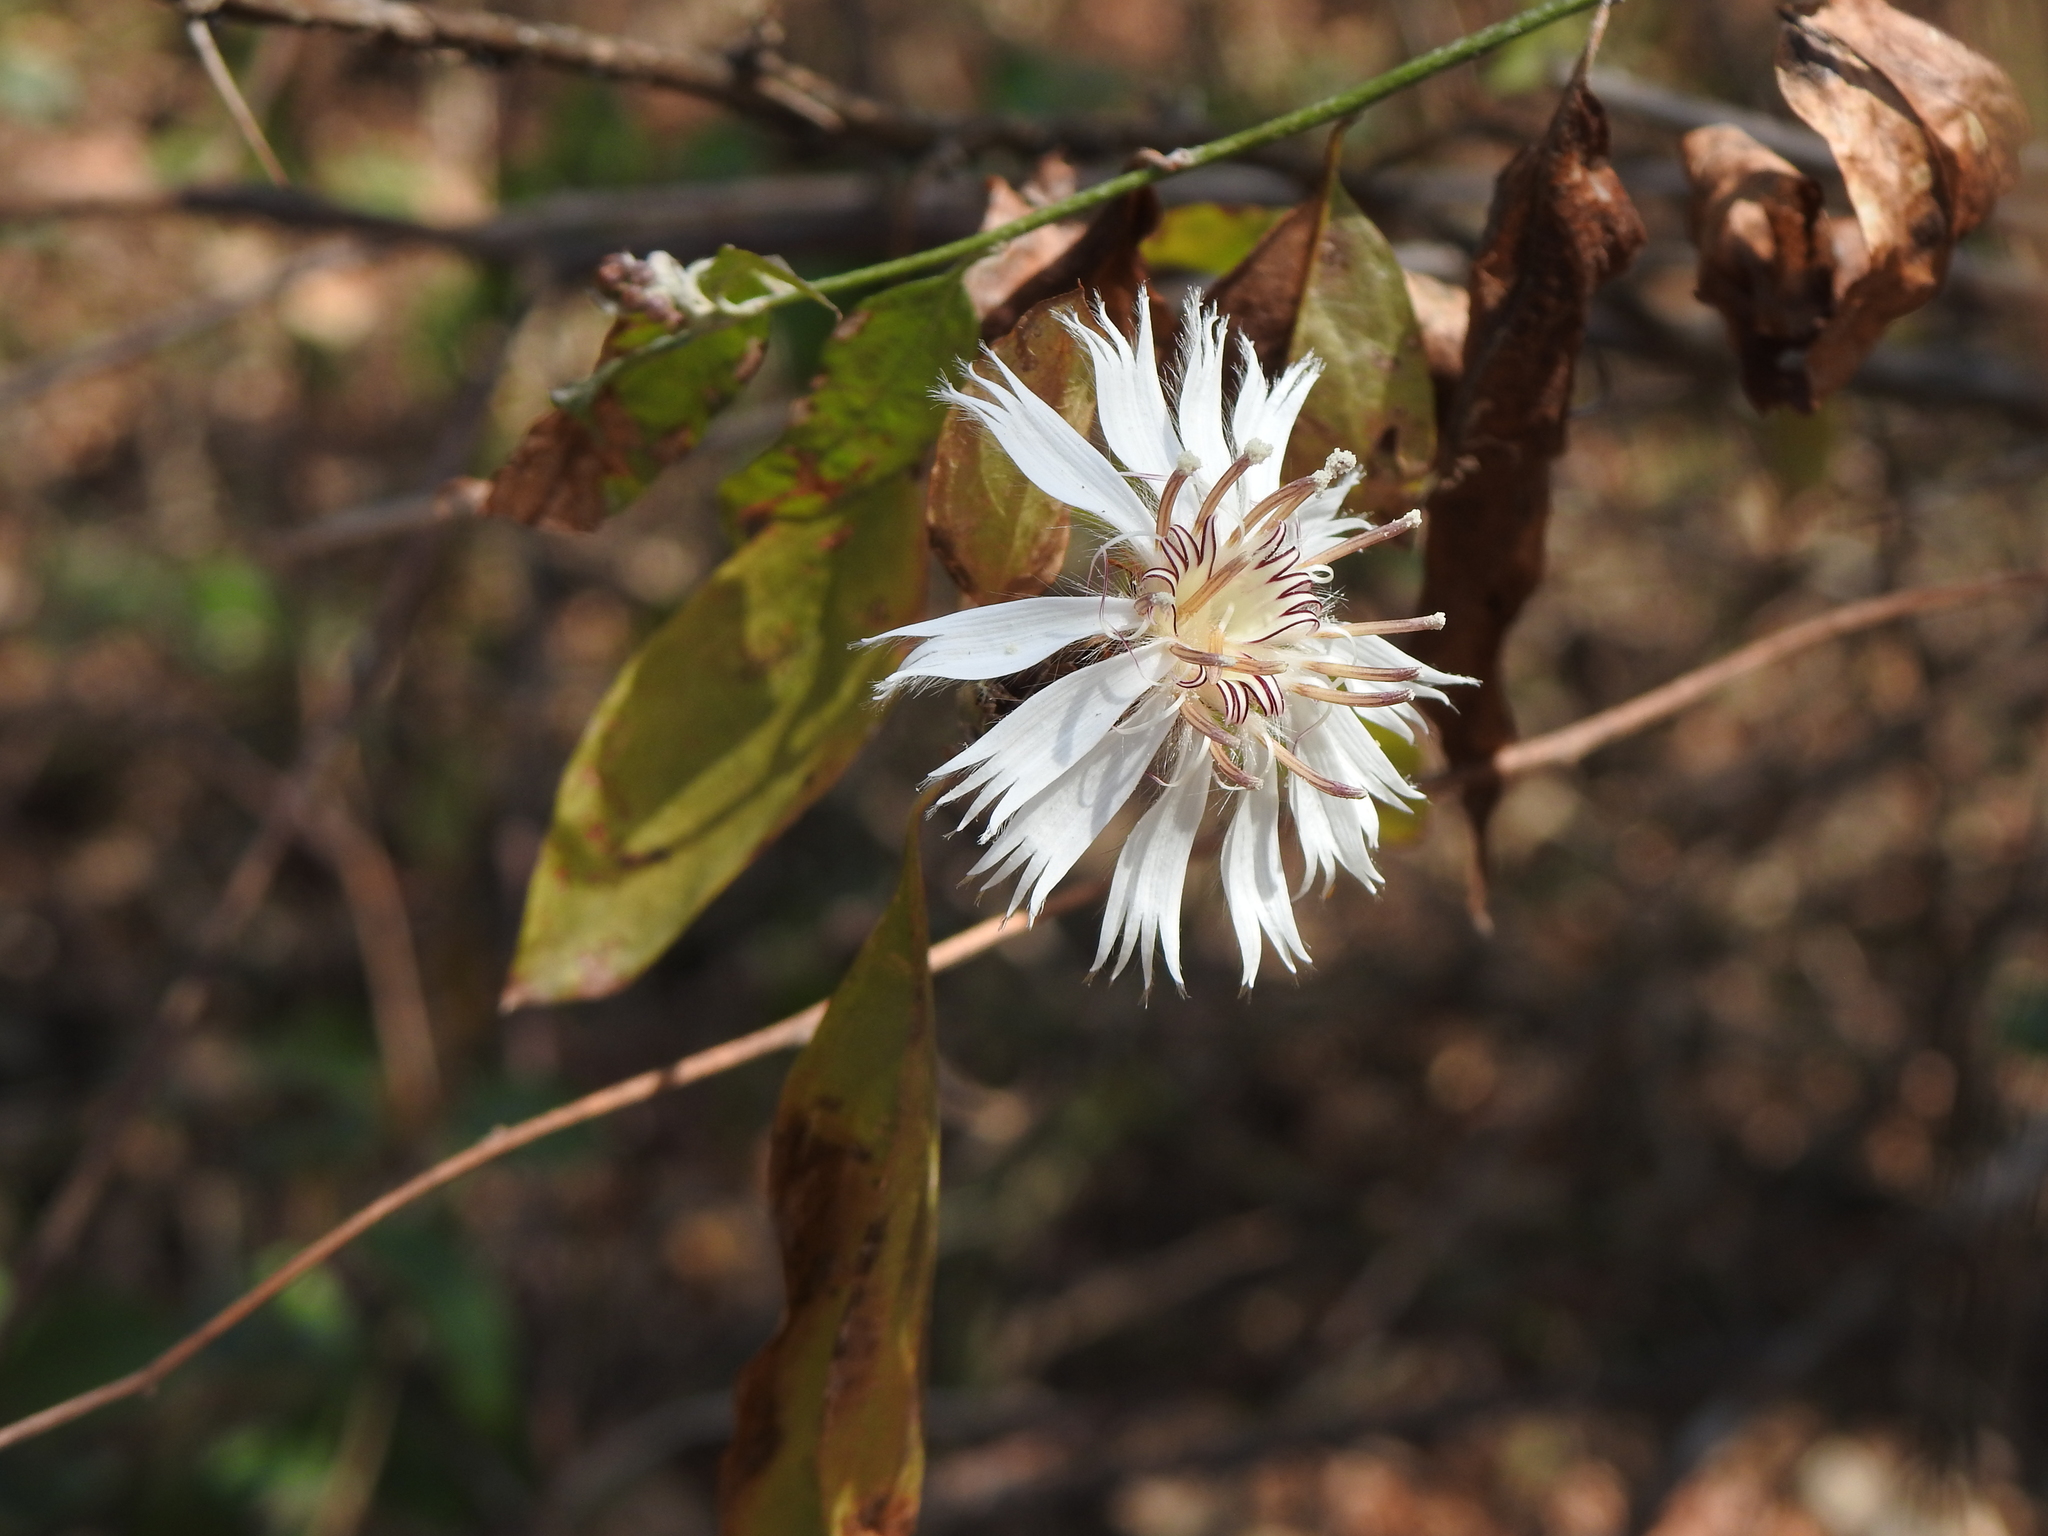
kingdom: Plantae
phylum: Tracheophyta
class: Magnoliopsida
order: Asterales
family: Asteraceae
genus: Barnadesia
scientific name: Barnadesia odorata
